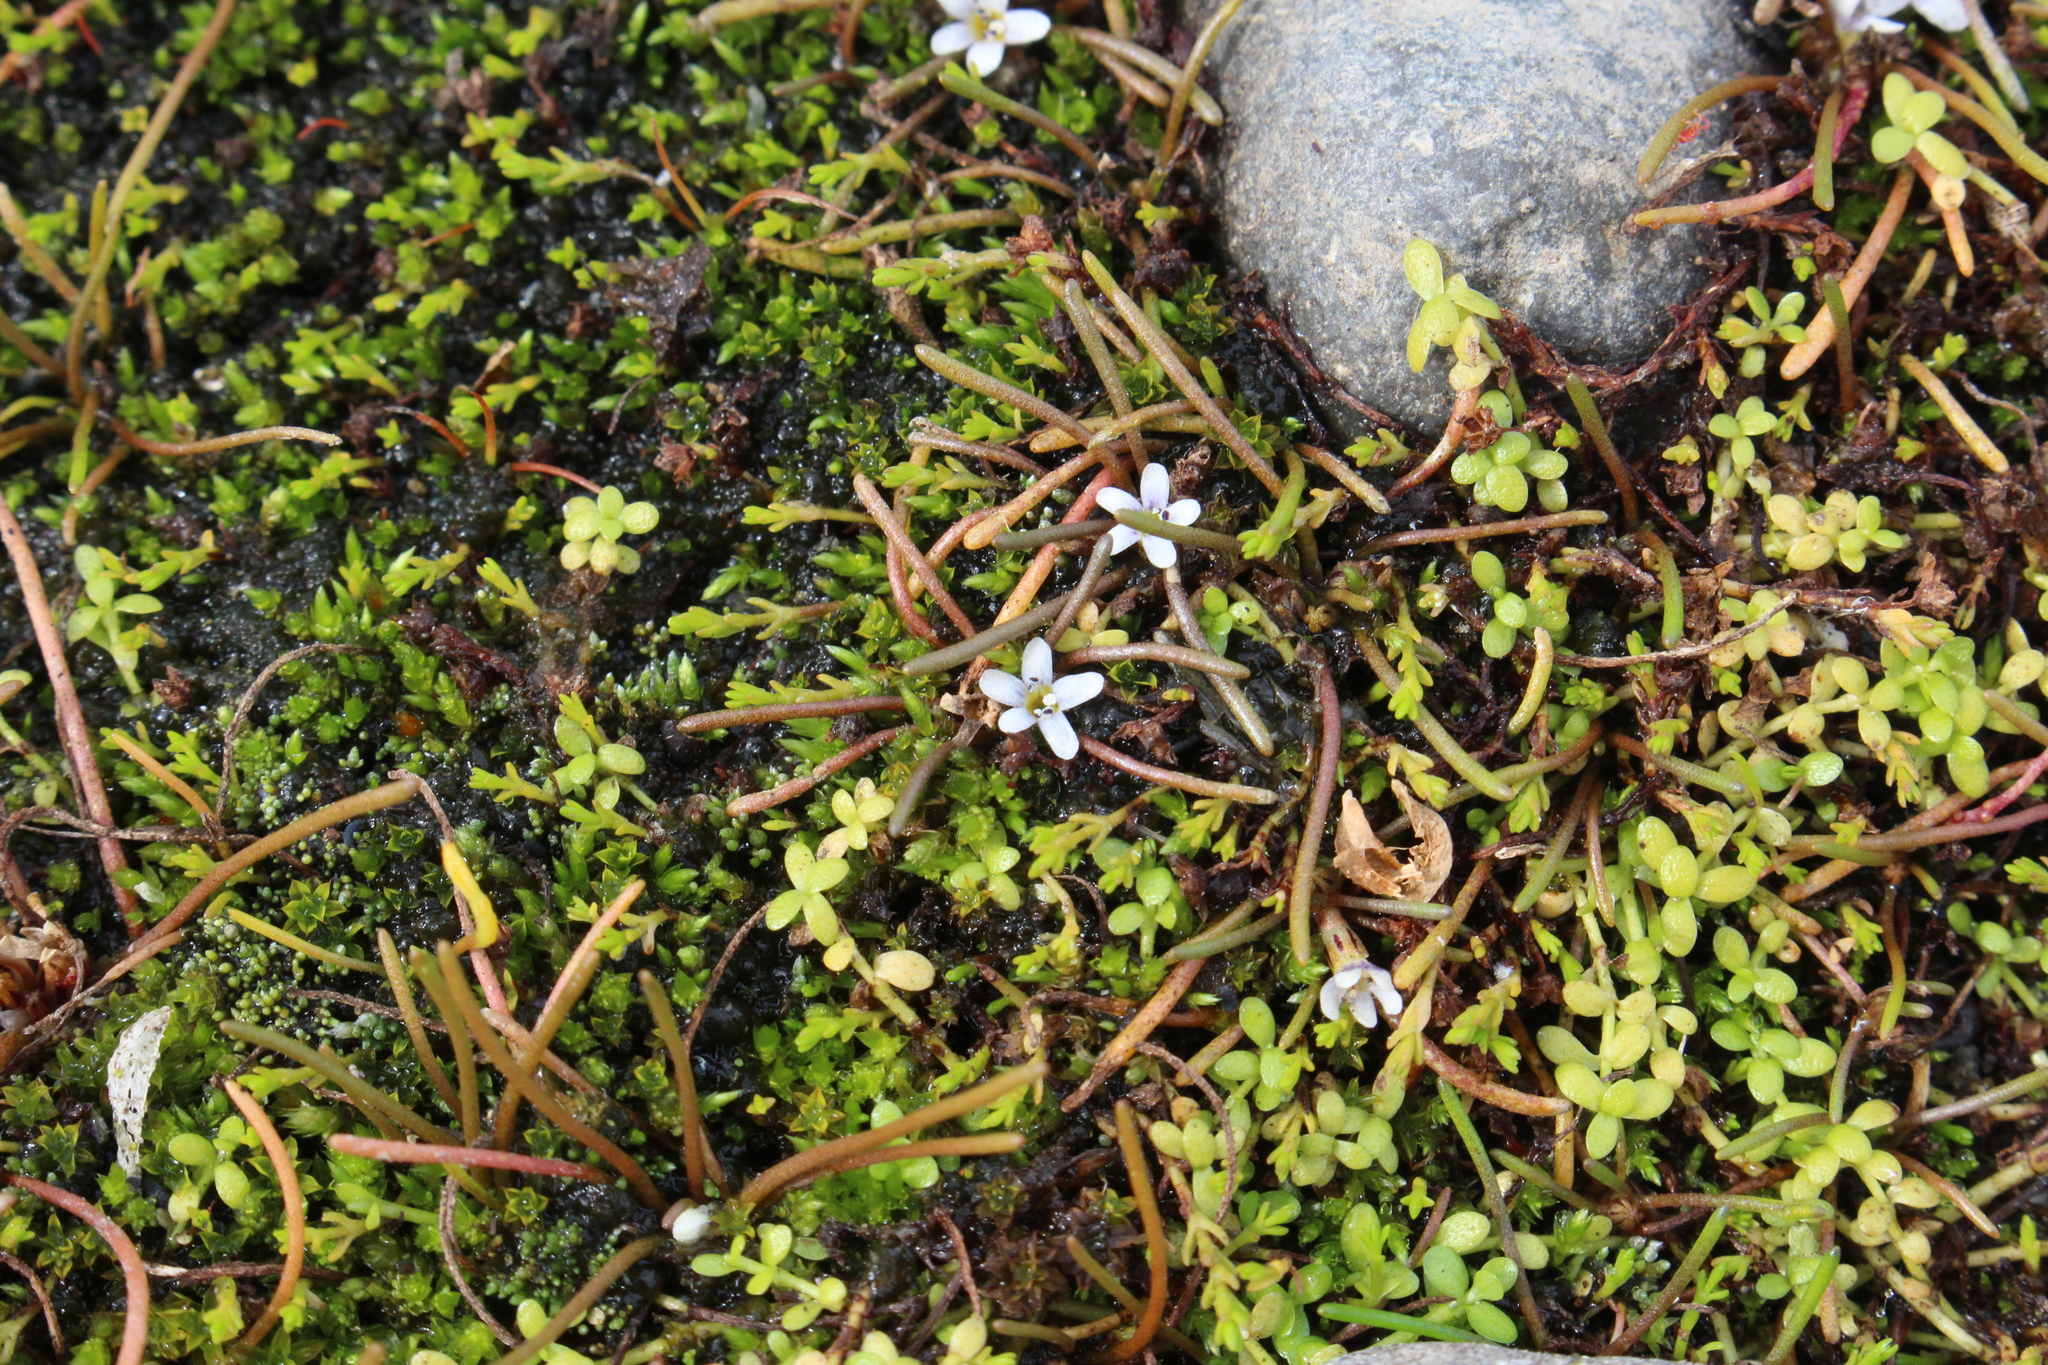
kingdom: Plantae
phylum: Tracheophyta
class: Magnoliopsida
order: Lamiales
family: Scrophulariaceae
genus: Limosella
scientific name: Limosella australis
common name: Welsh mudwort
